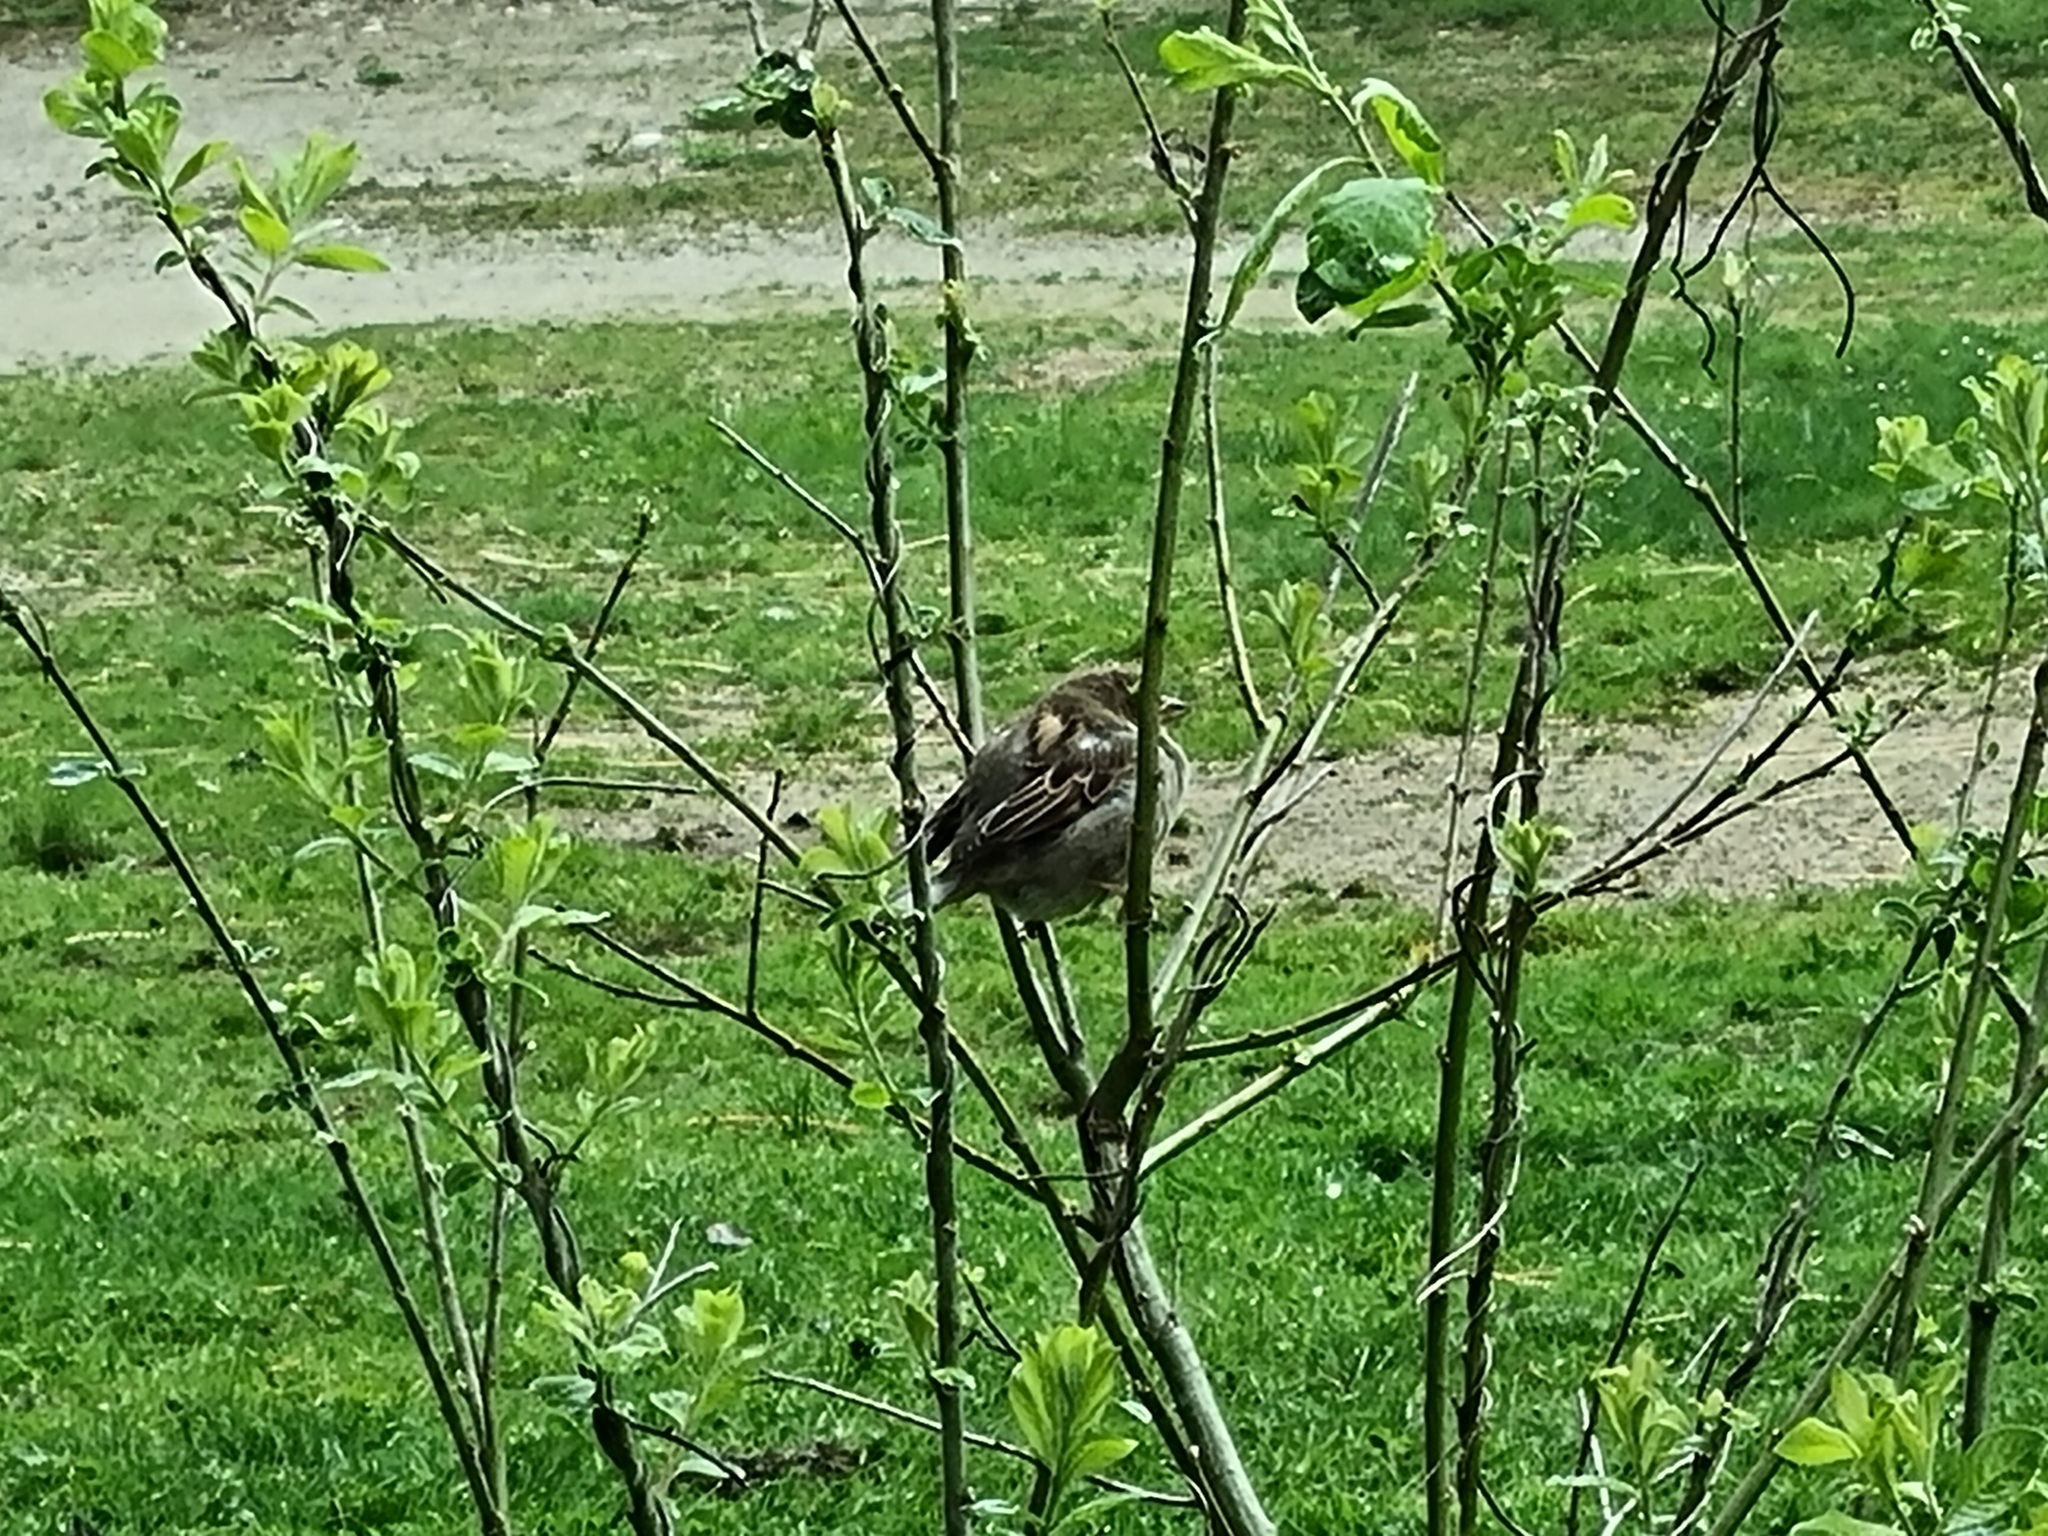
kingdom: Animalia
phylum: Chordata
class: Aves
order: Passeriformes
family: Passeridae
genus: Passer
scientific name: Passer domesticus
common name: House sparrow
